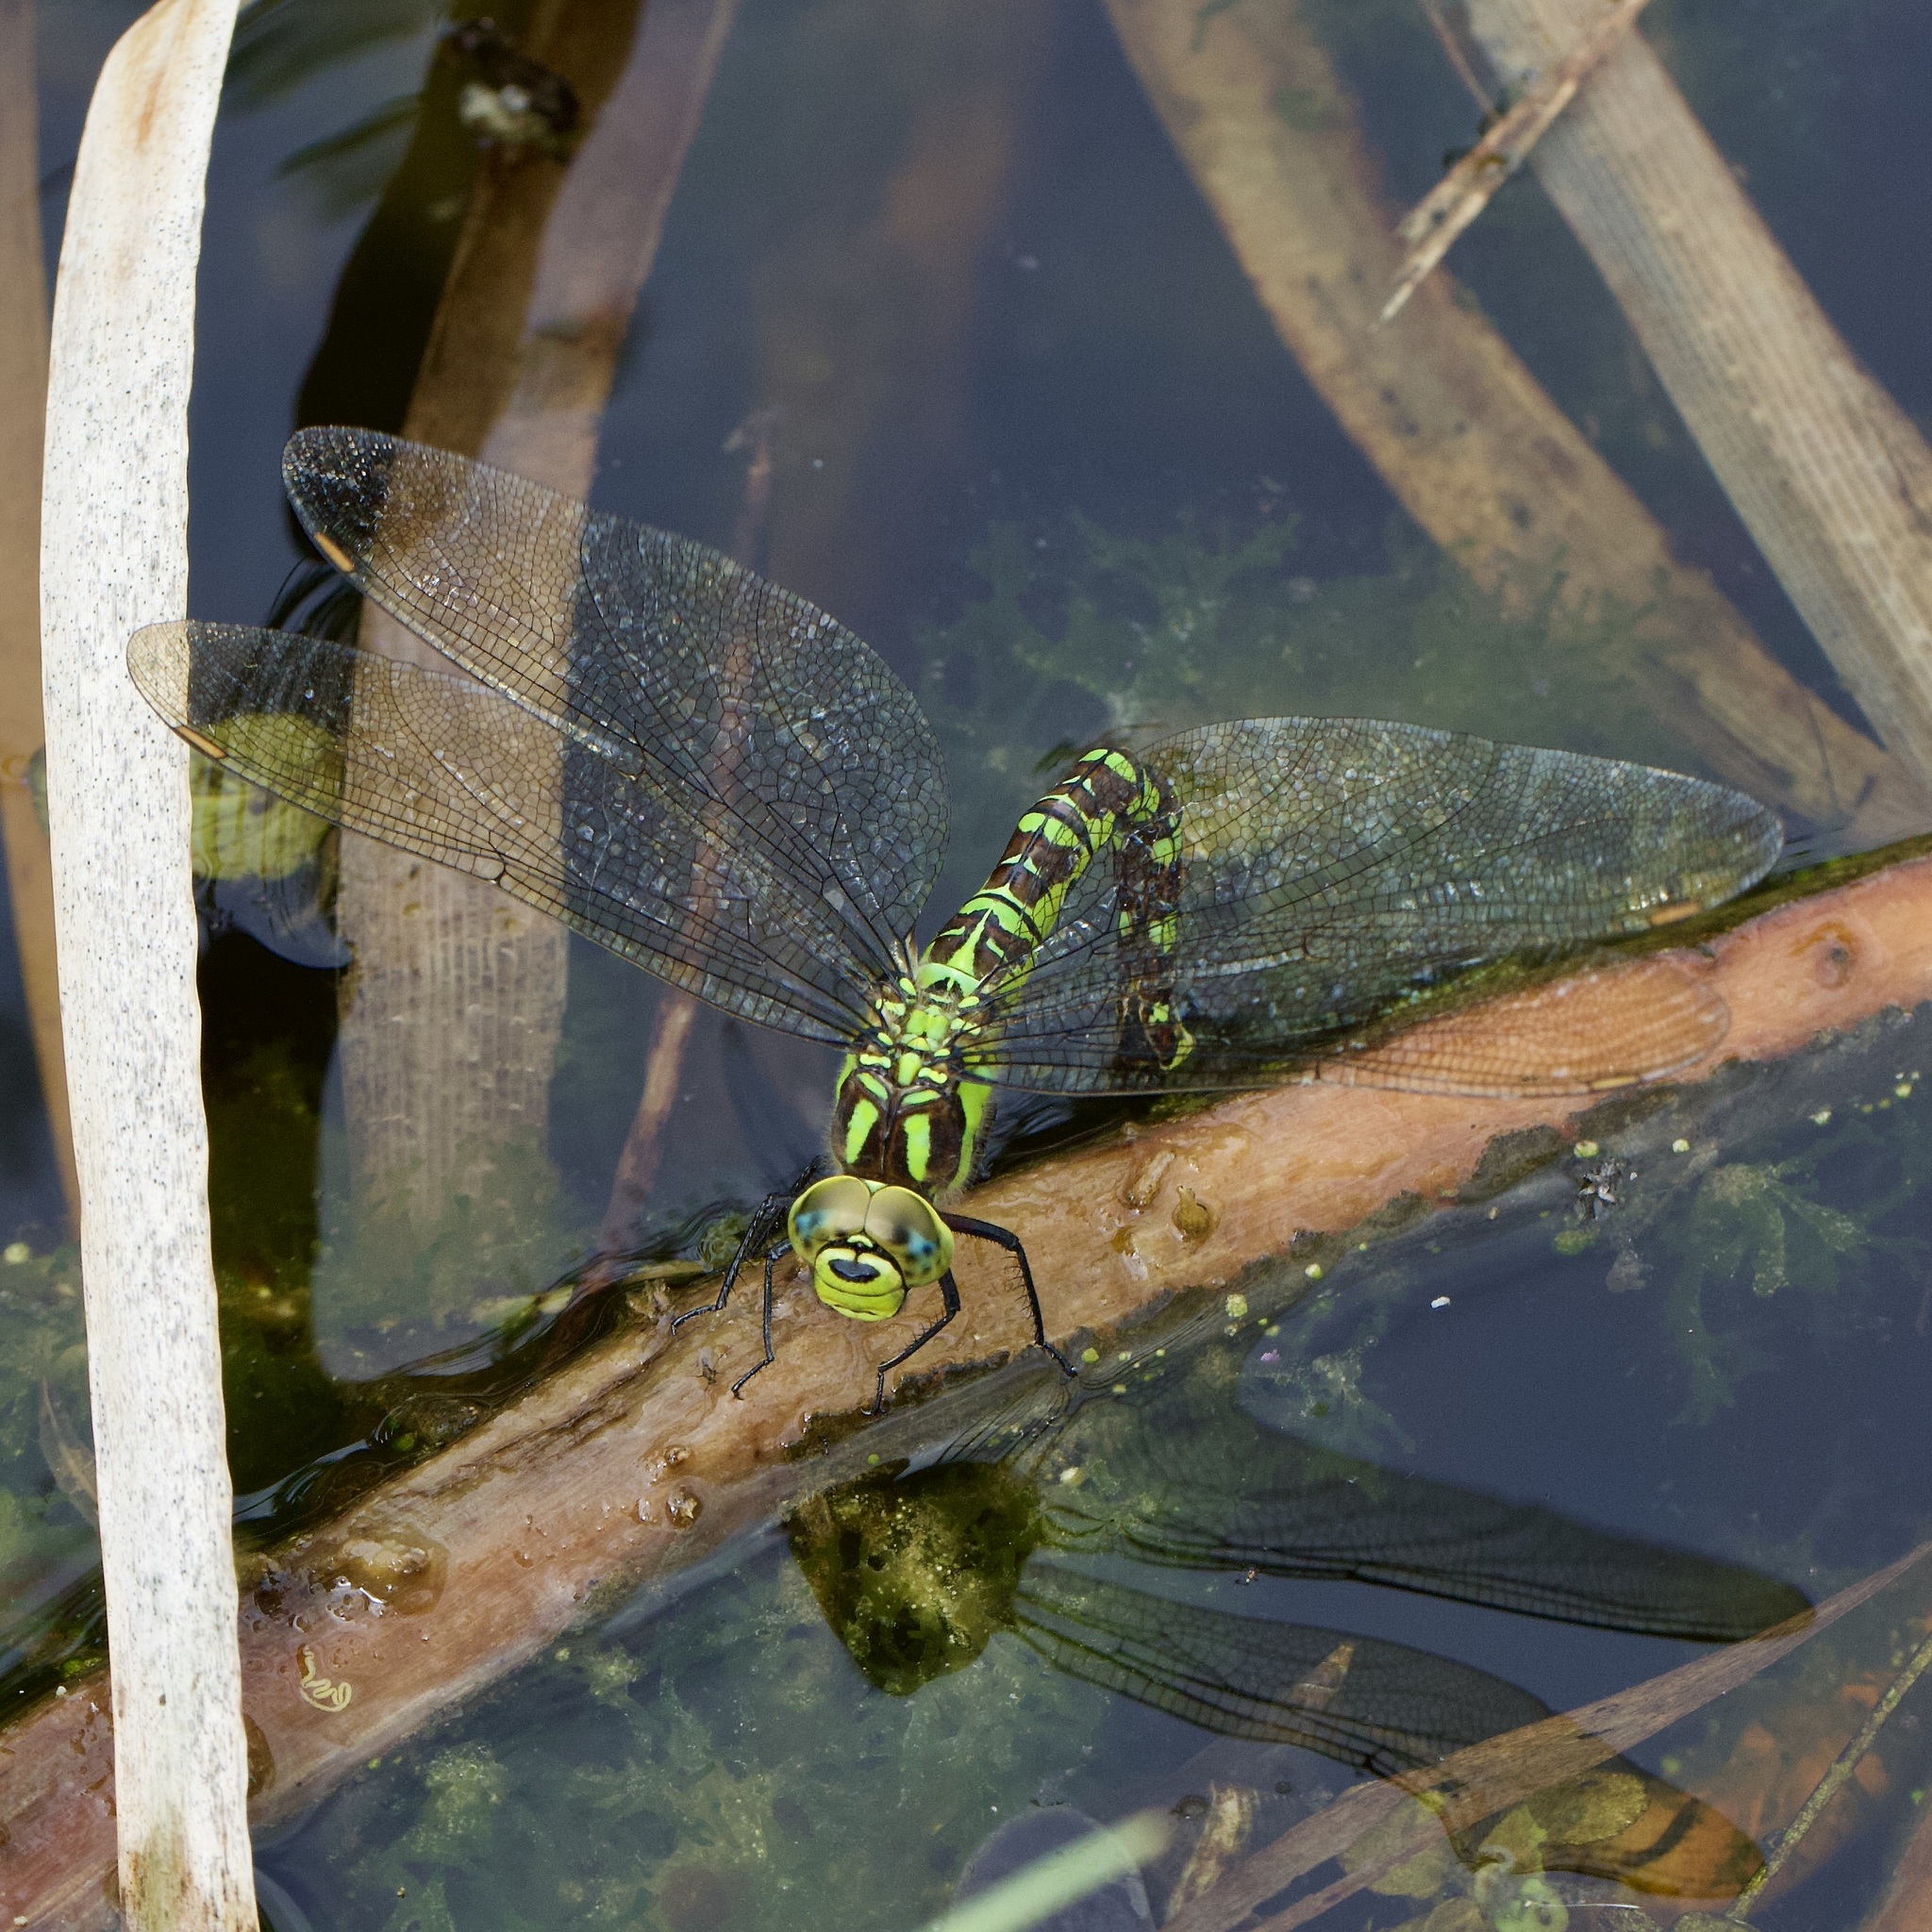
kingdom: Animalia
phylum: Arthropoda
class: Insecta
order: Odonata
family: Aeshnidae
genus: Aeshna
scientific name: Aeshna cyanea
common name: Southern hawker
